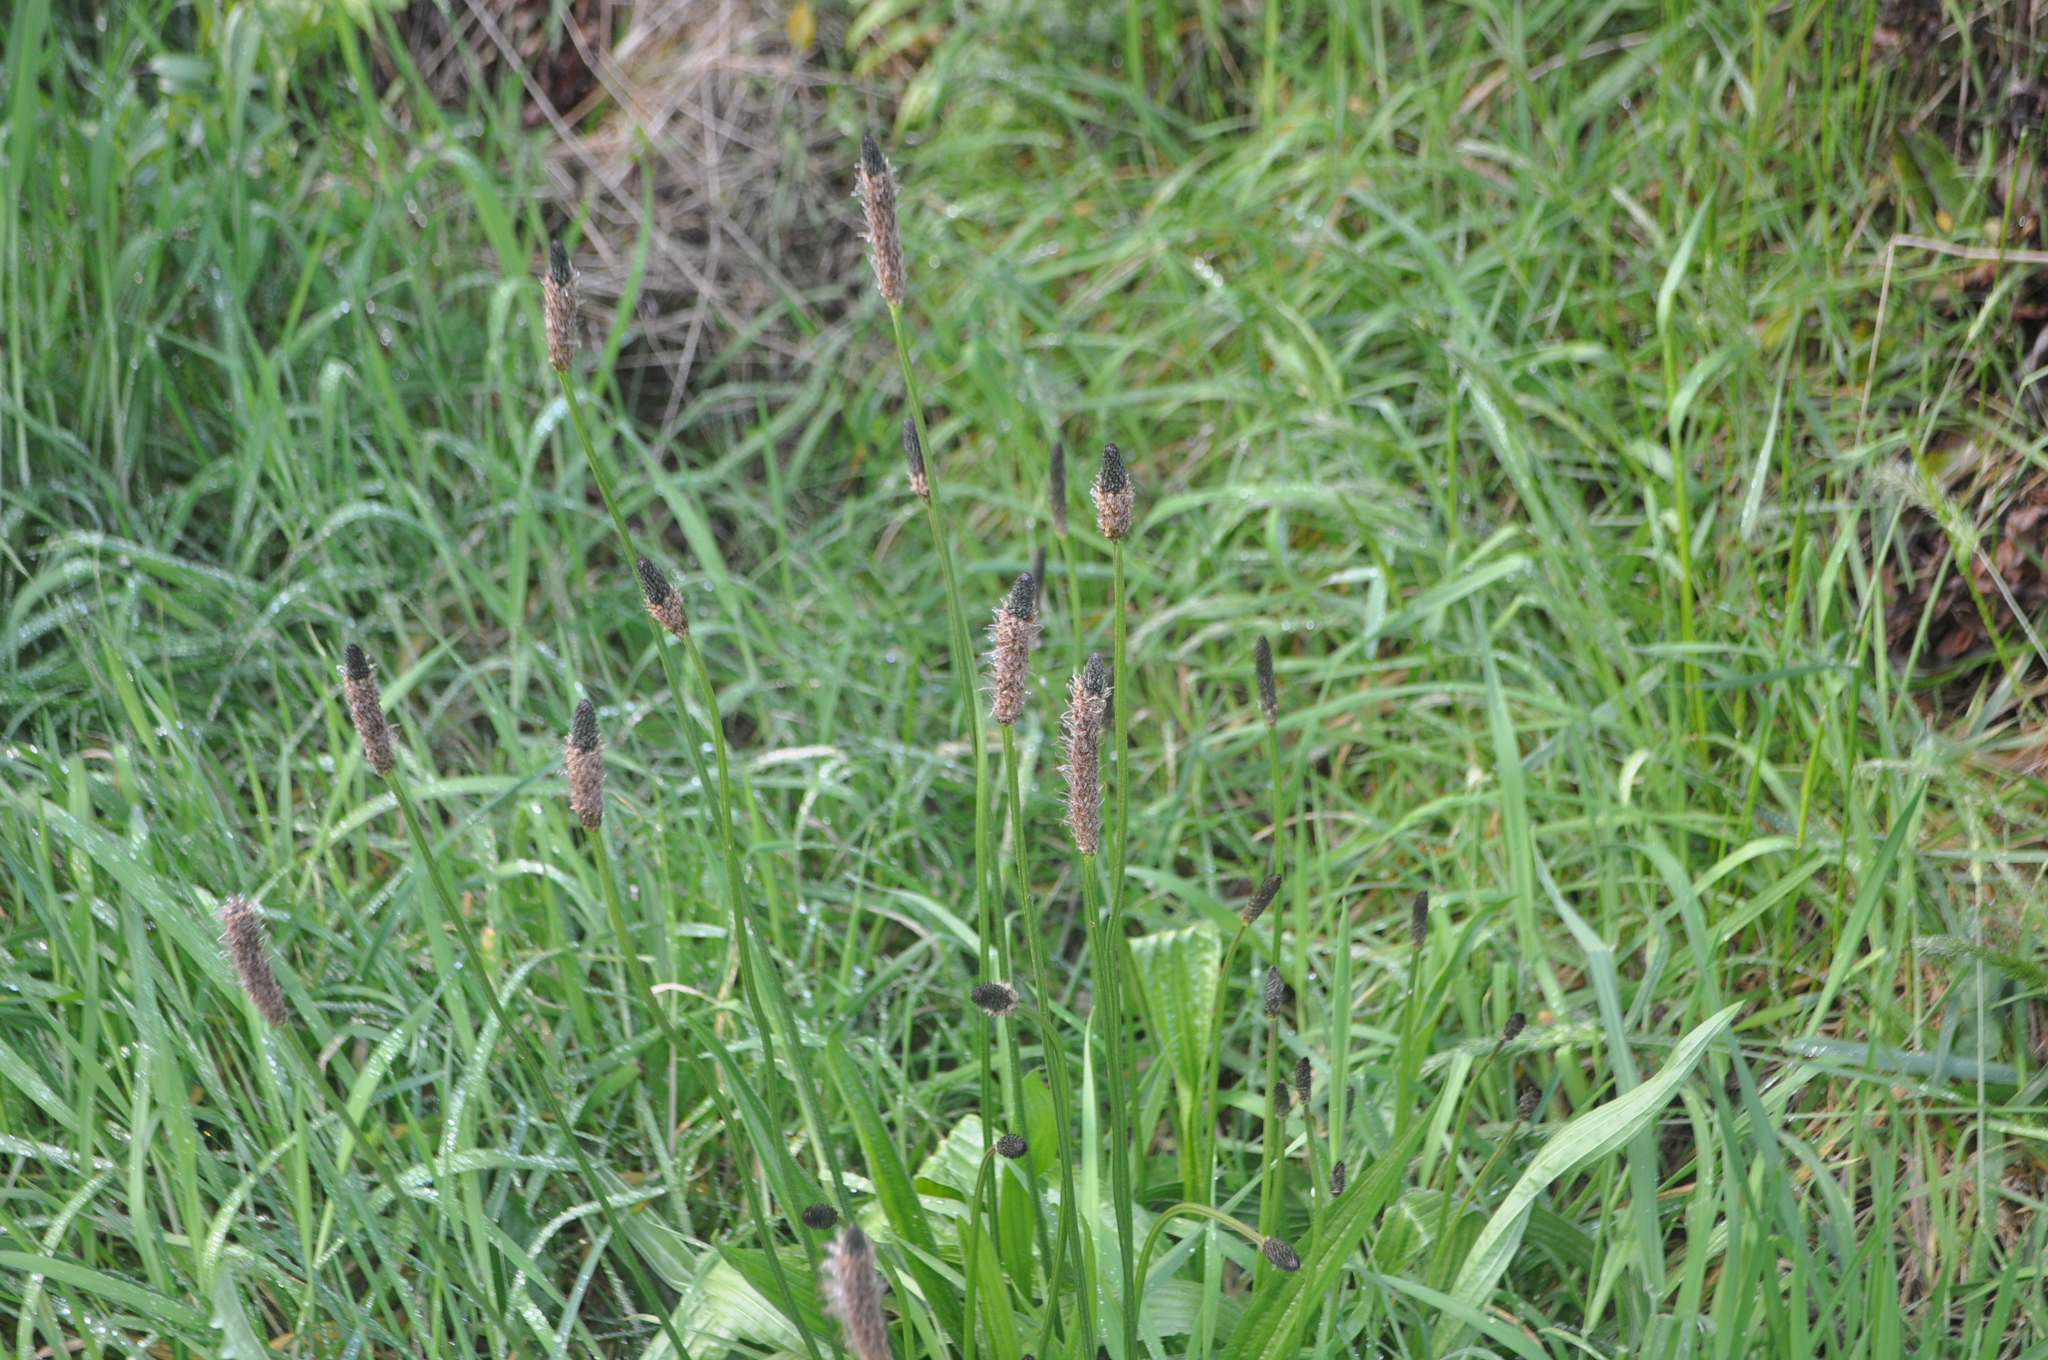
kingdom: Plantae
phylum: Tracheophyta
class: Magnoliopsida
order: Lamiales
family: Plantaginaceae
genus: Plantago
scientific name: Plantago lanceolata
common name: Ribwort plantain
